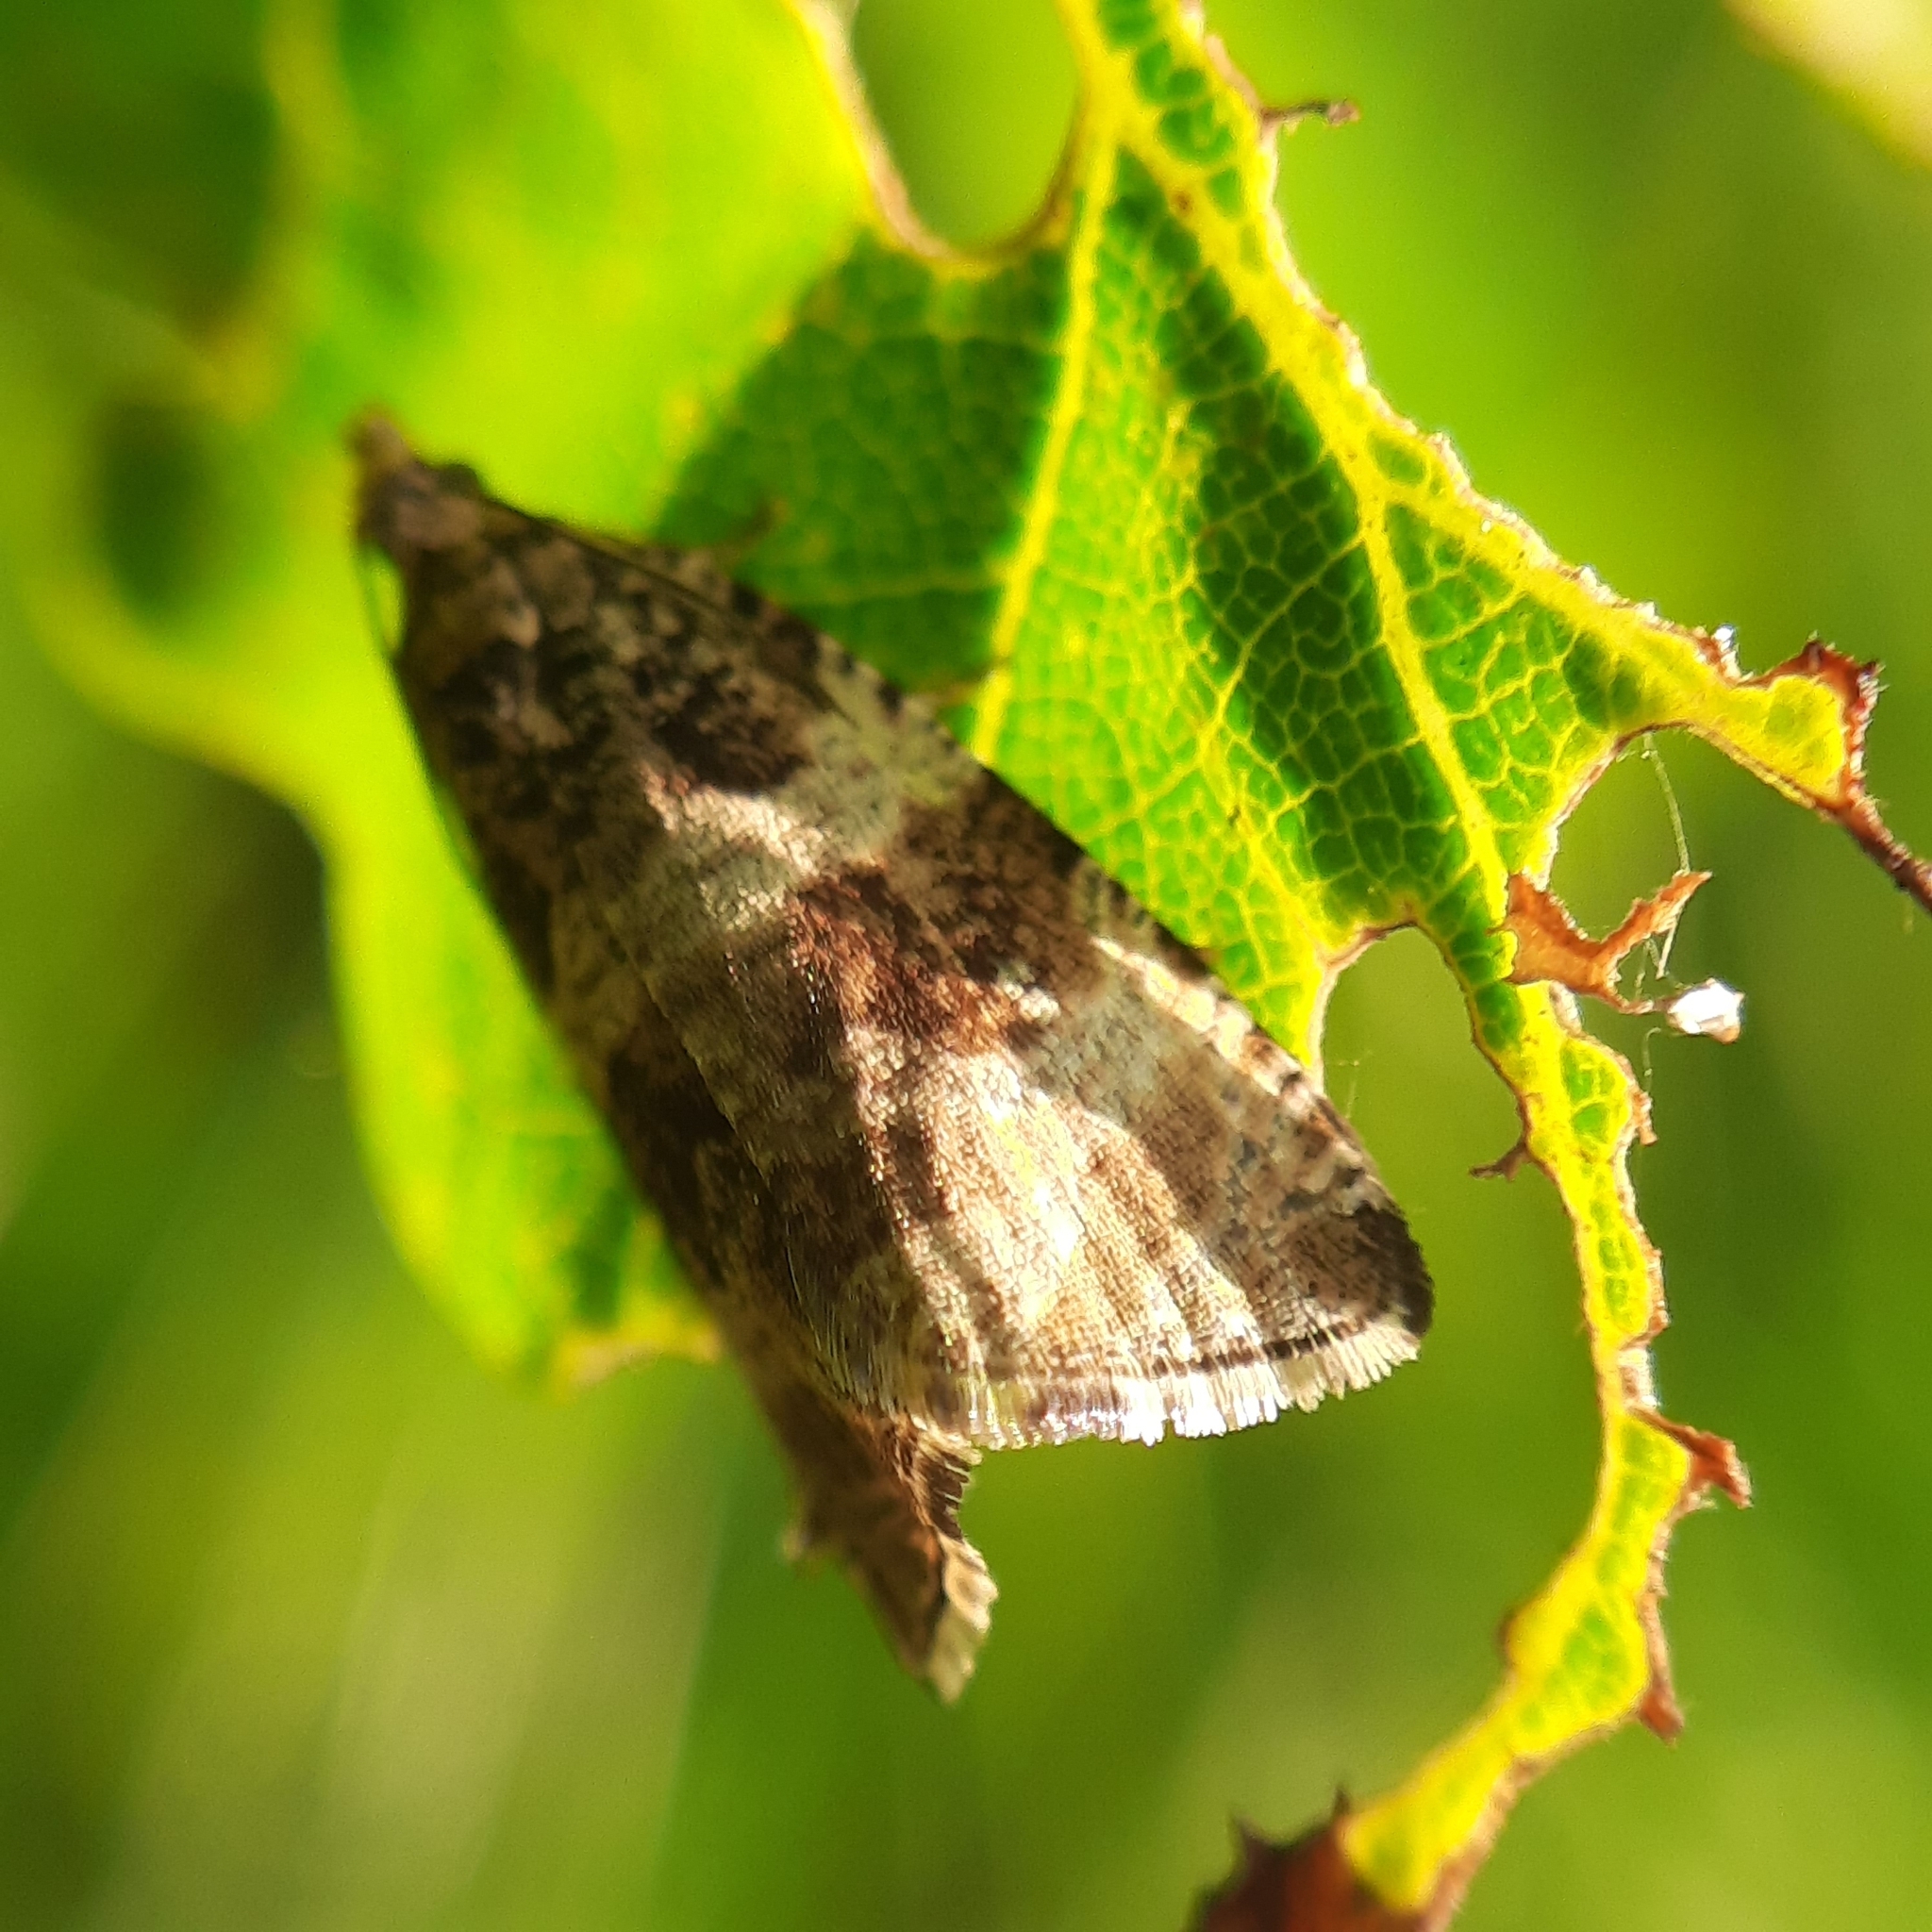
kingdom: Animalia
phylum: Arthropoda
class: Insecta
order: Lepidoptera
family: Tortricidae
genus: Celypha
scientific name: Celypha flavipalpana
